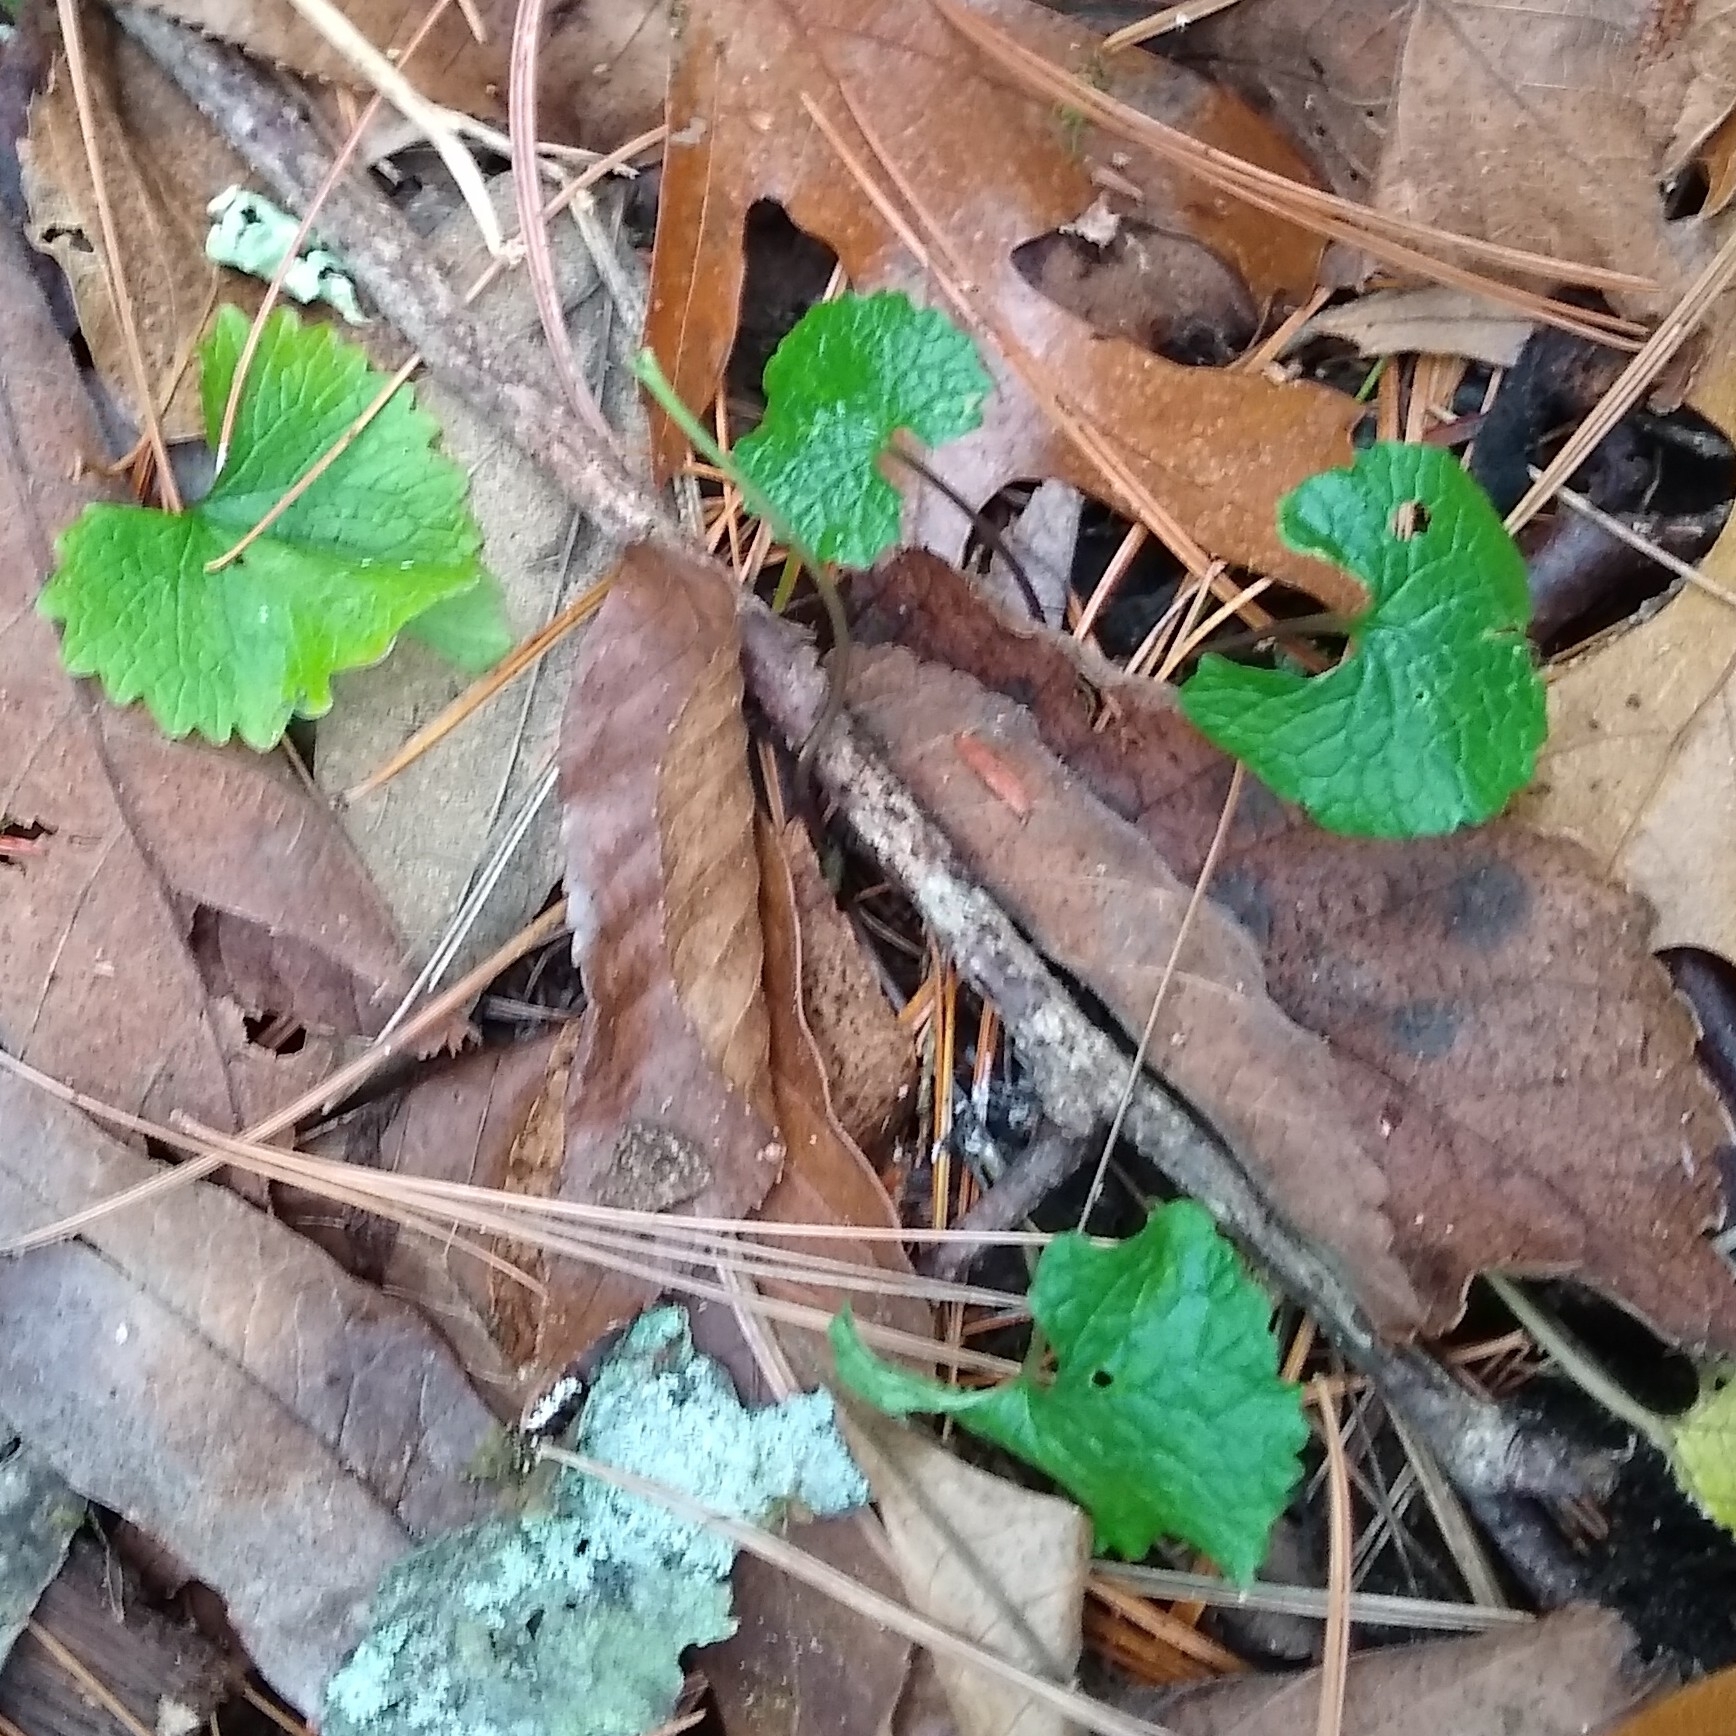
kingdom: Plantae
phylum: Tracheophyta
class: Magnoliopsida
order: Brassicales
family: Brassicaceae
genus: Alliaria
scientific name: Alliaria petiolata
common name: Garlic mustard
